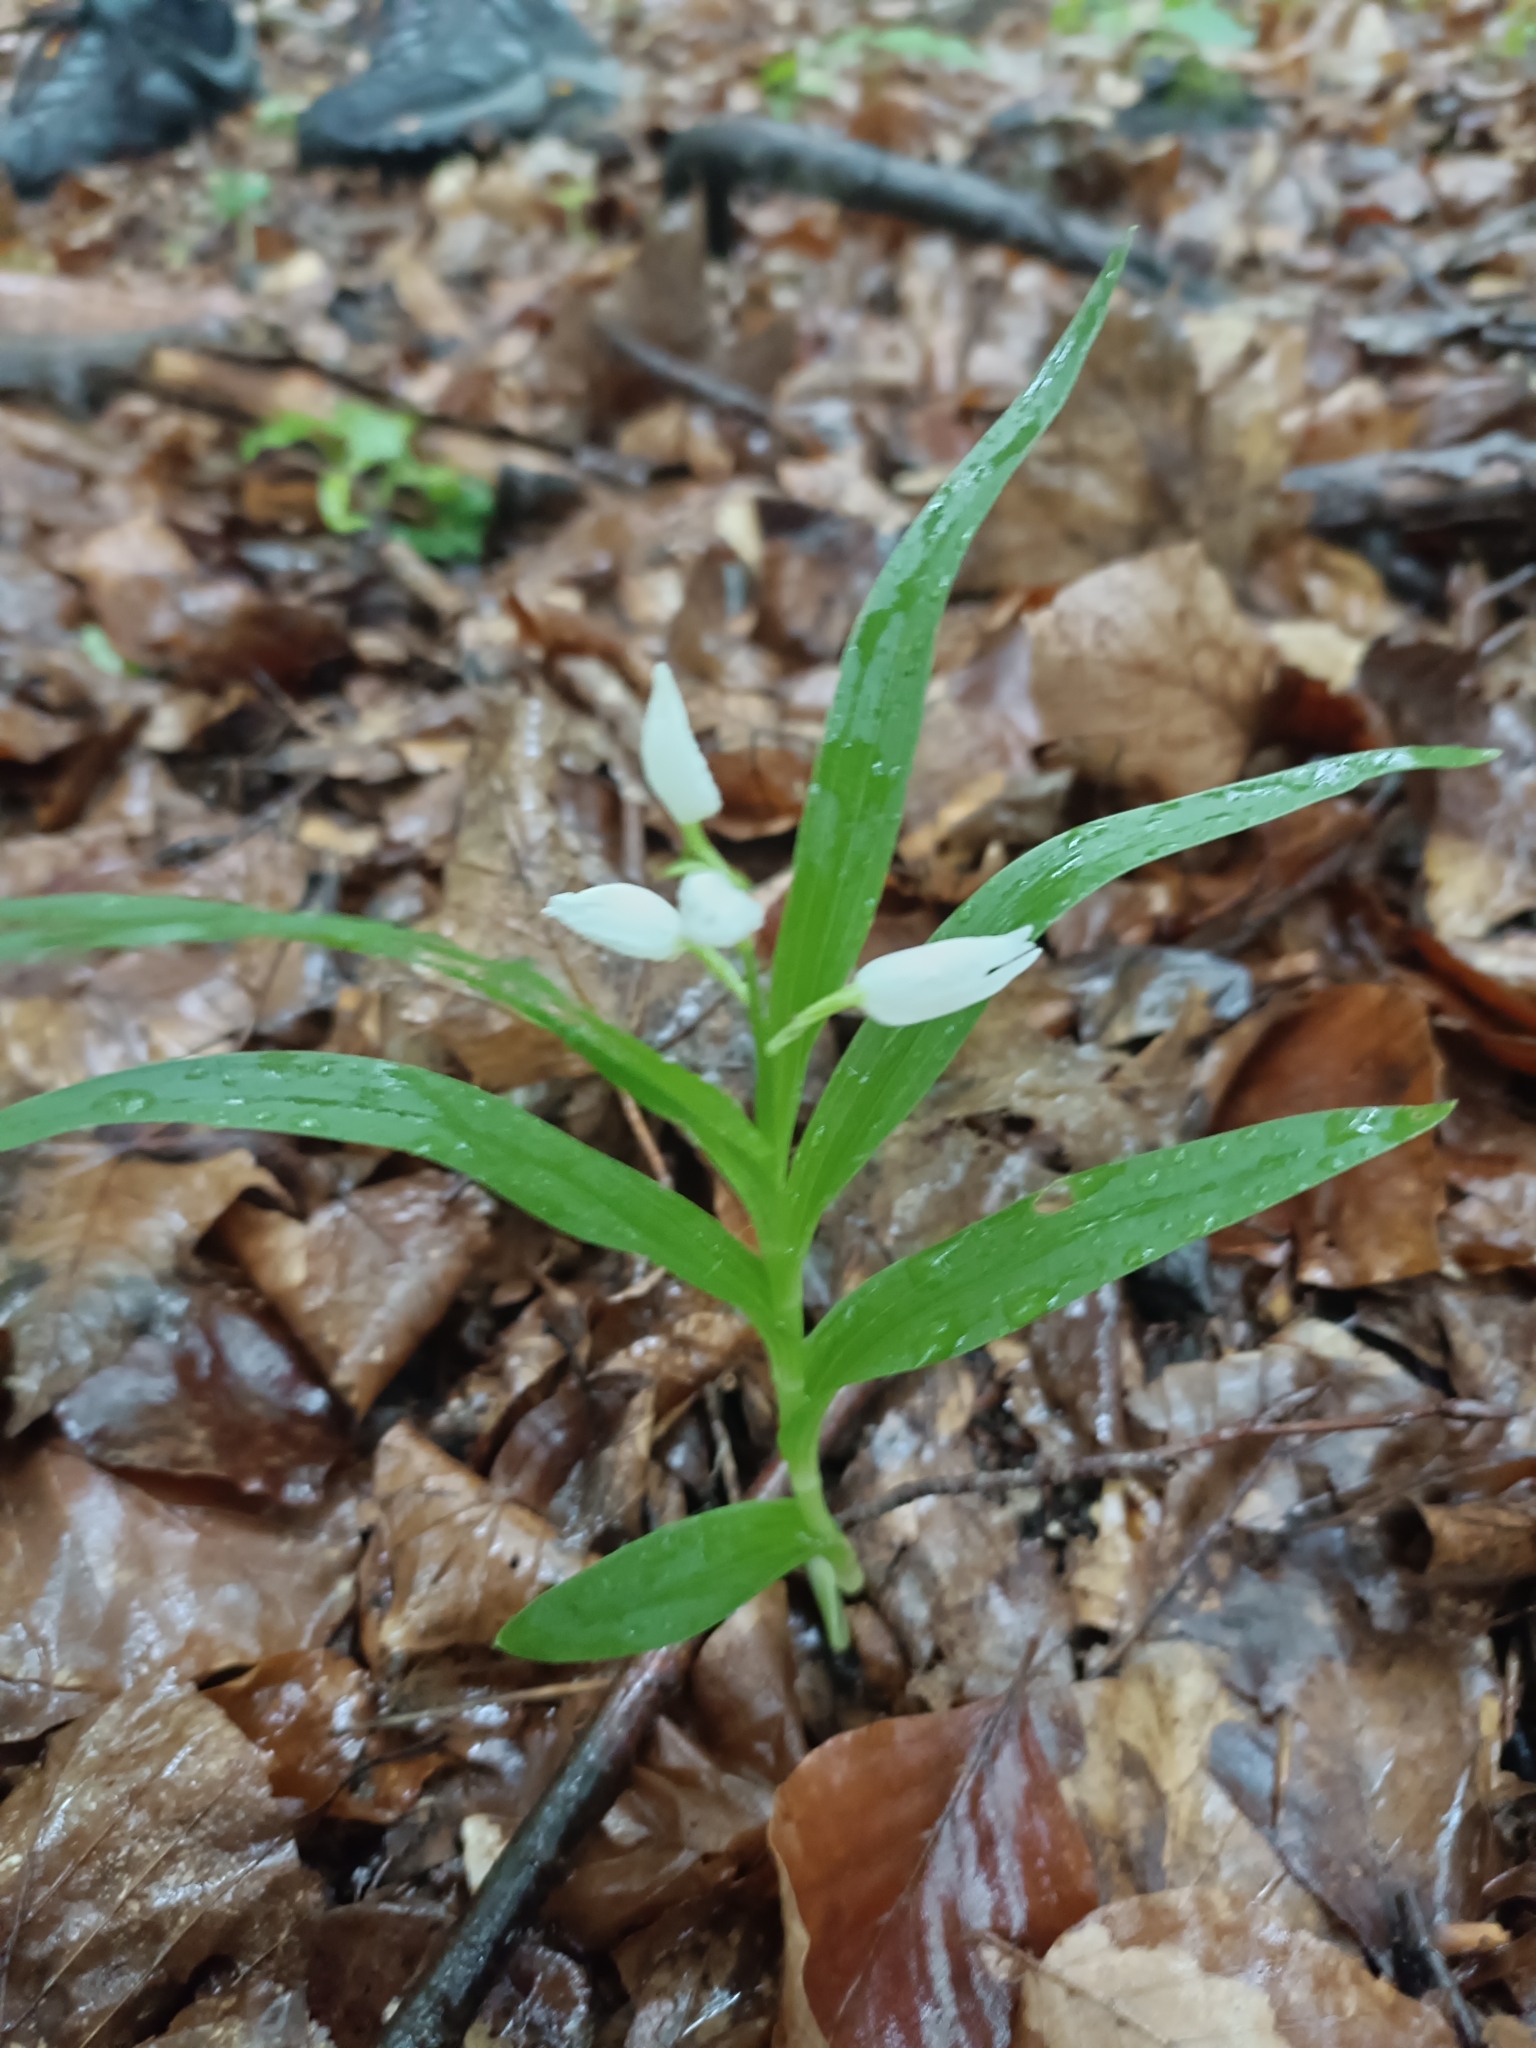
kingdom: Plantae
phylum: Tracheophyta
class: Liliopsida
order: Asparagales
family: Orchidaceae
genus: Cephalanthera
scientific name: Cephalanthera longifolia
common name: Narrow-leaved helleborine
